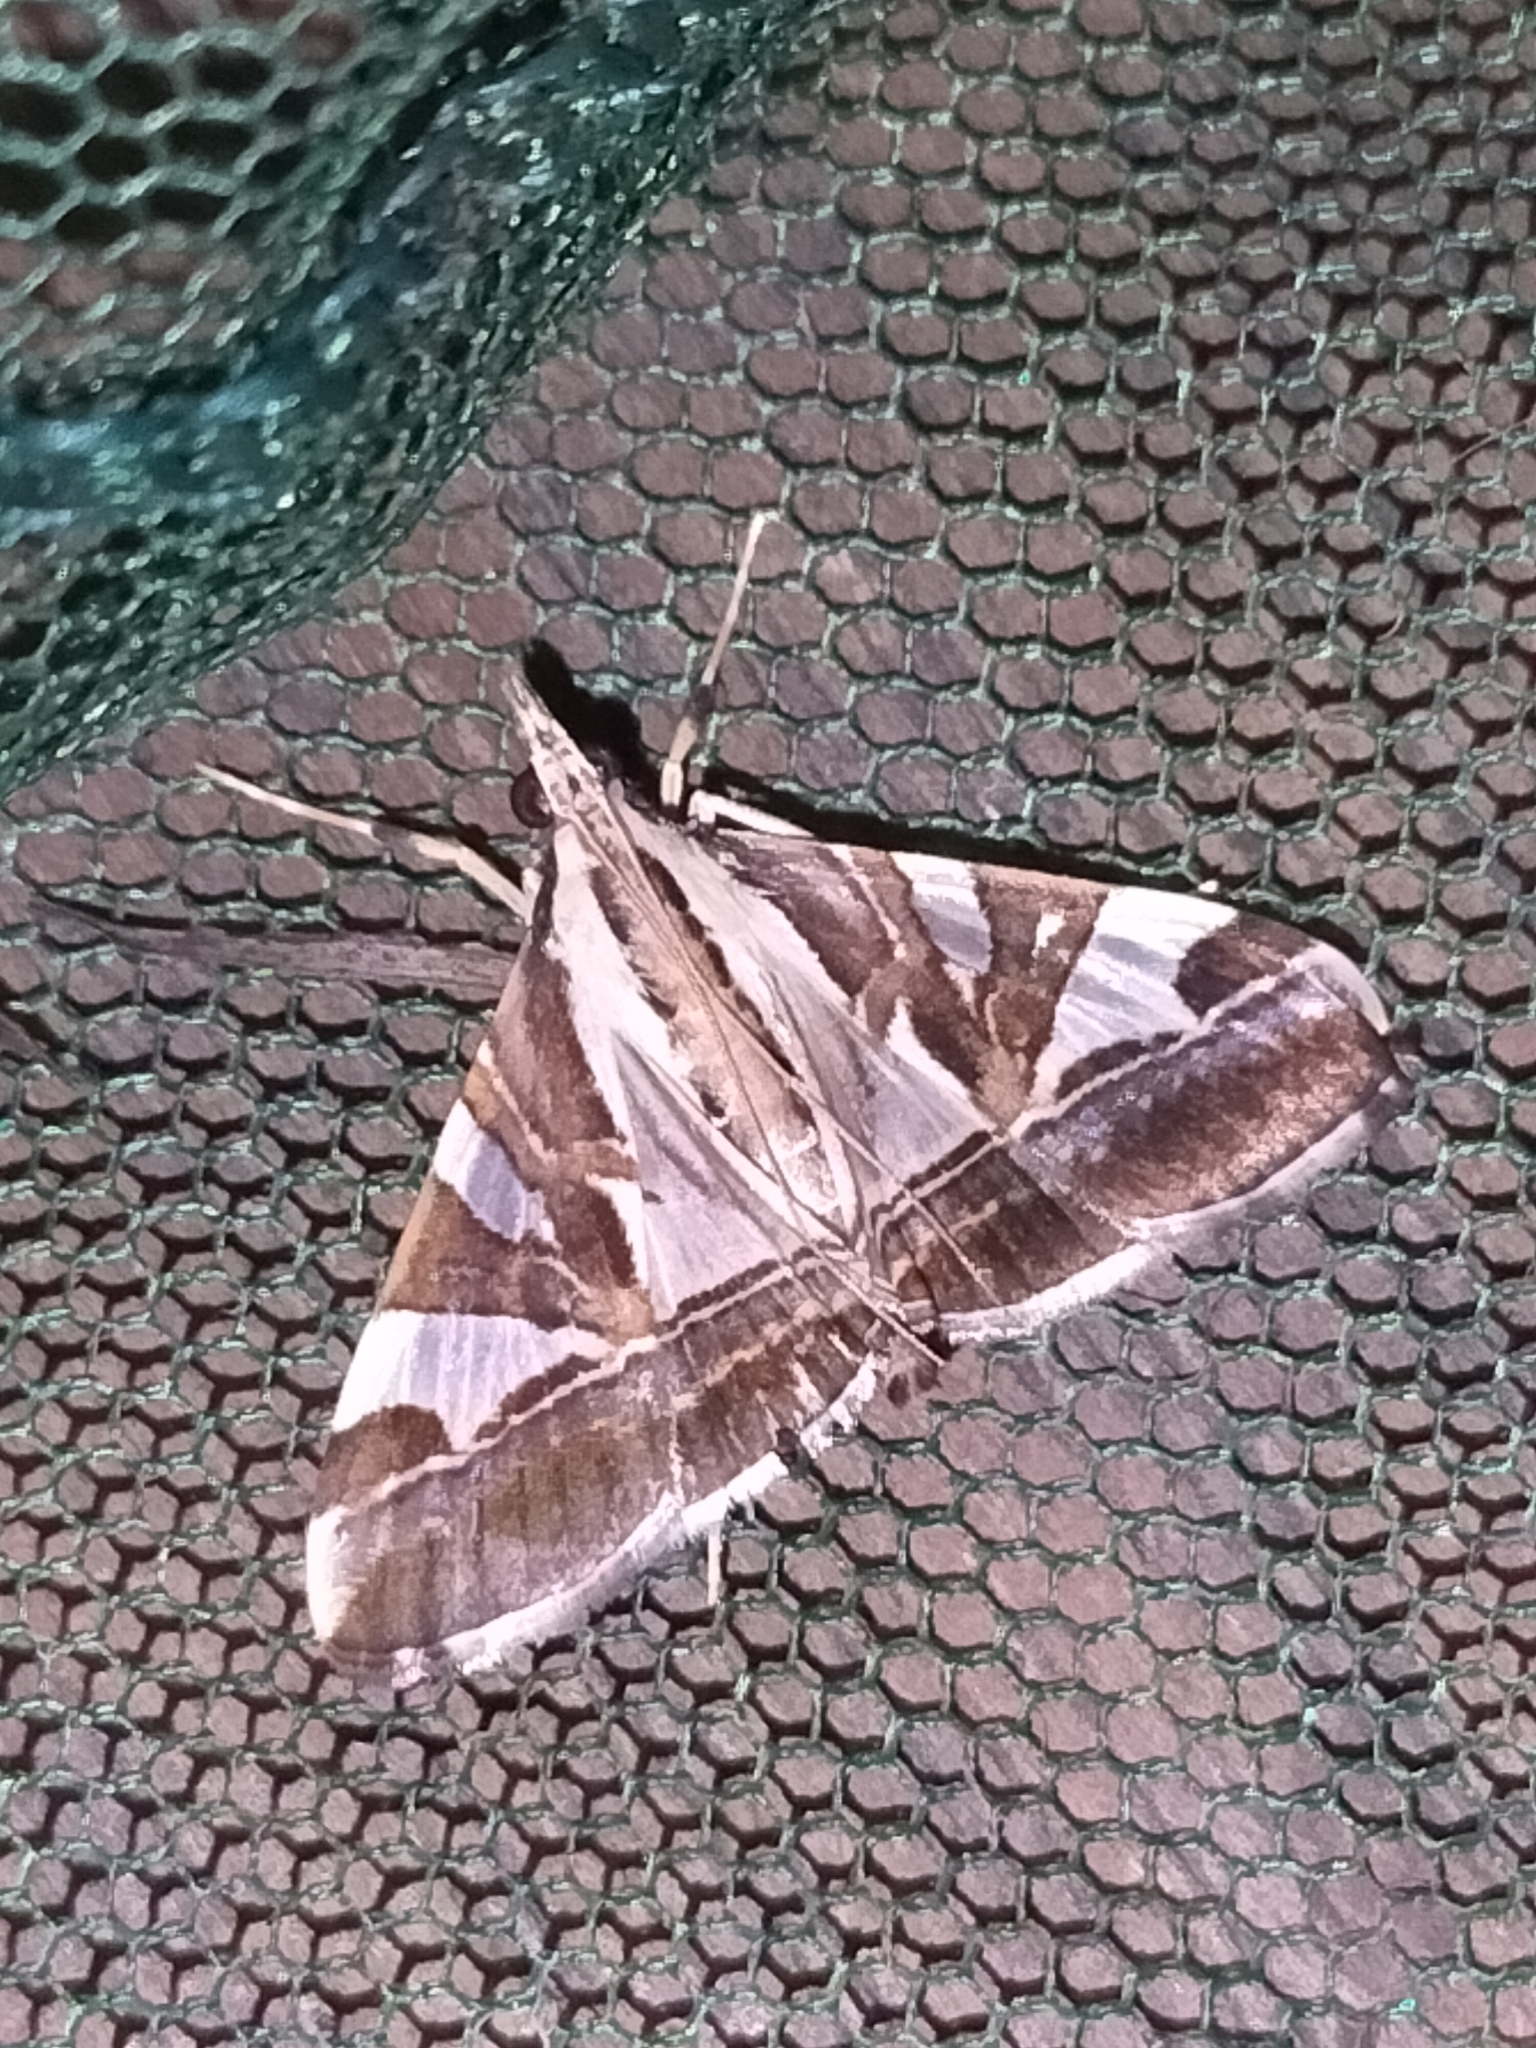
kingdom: Animalia
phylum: Arthropoda
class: Insecta
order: Lepidoptera
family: Crambidae
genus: Agrioglypta
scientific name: Agrioglypta itysalis
